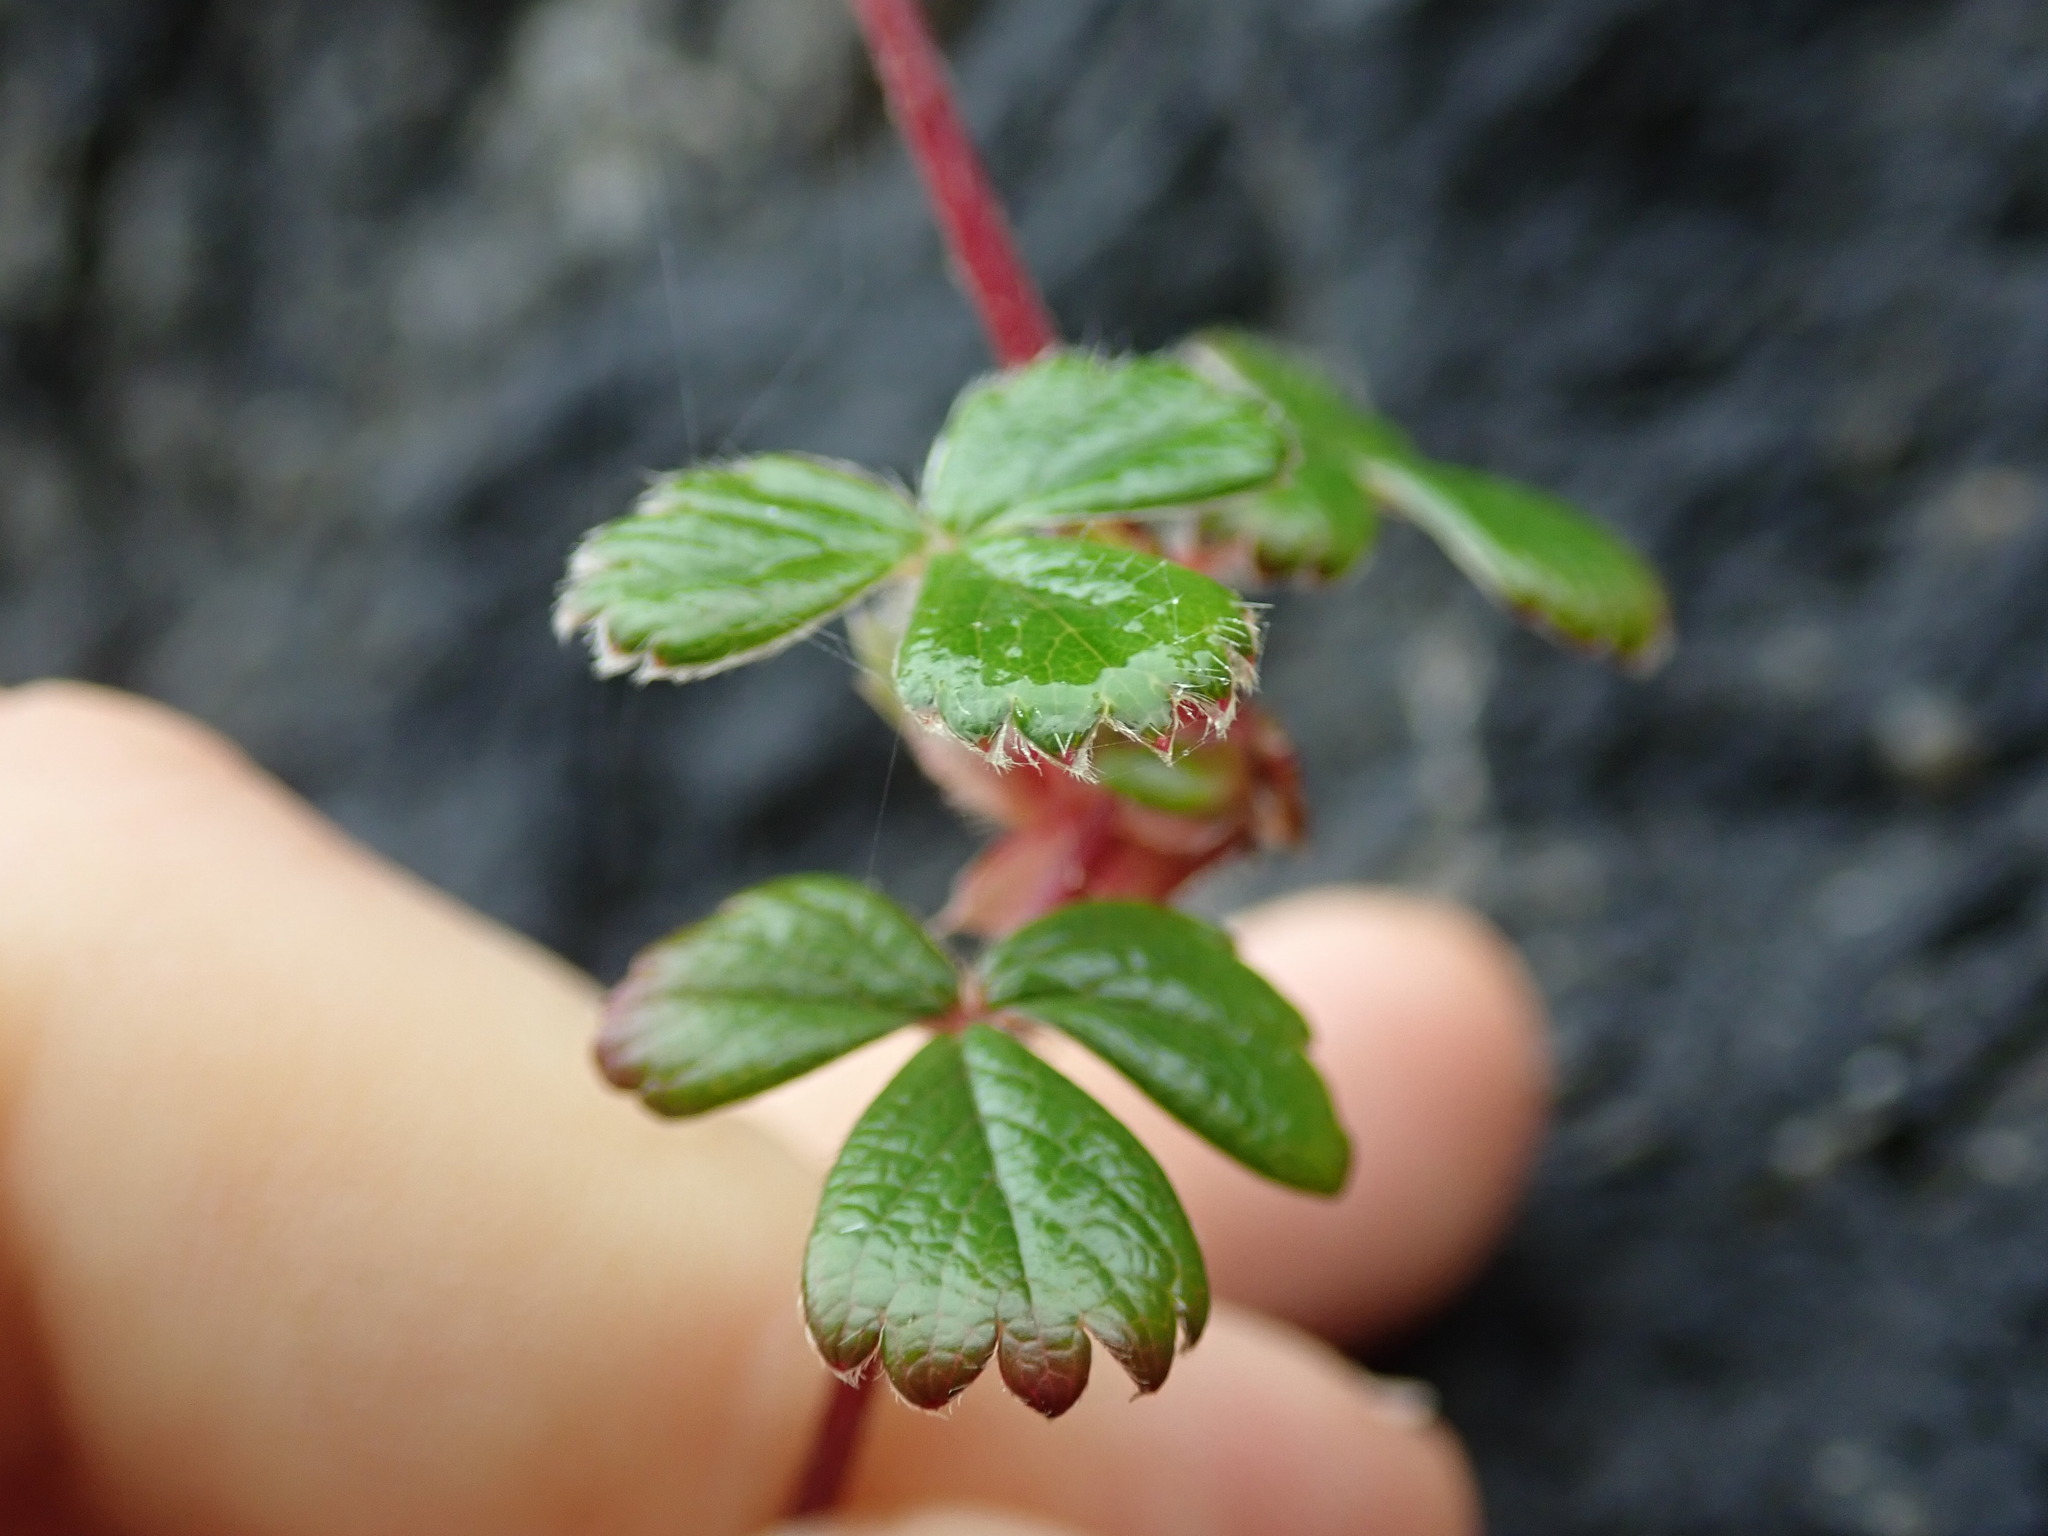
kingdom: Plantae
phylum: Tracheophyta
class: Magnoliopsida
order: Rosales
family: Rosaceae
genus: Fragaria
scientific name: Fragaria chiloensis
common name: Beach strawberry
